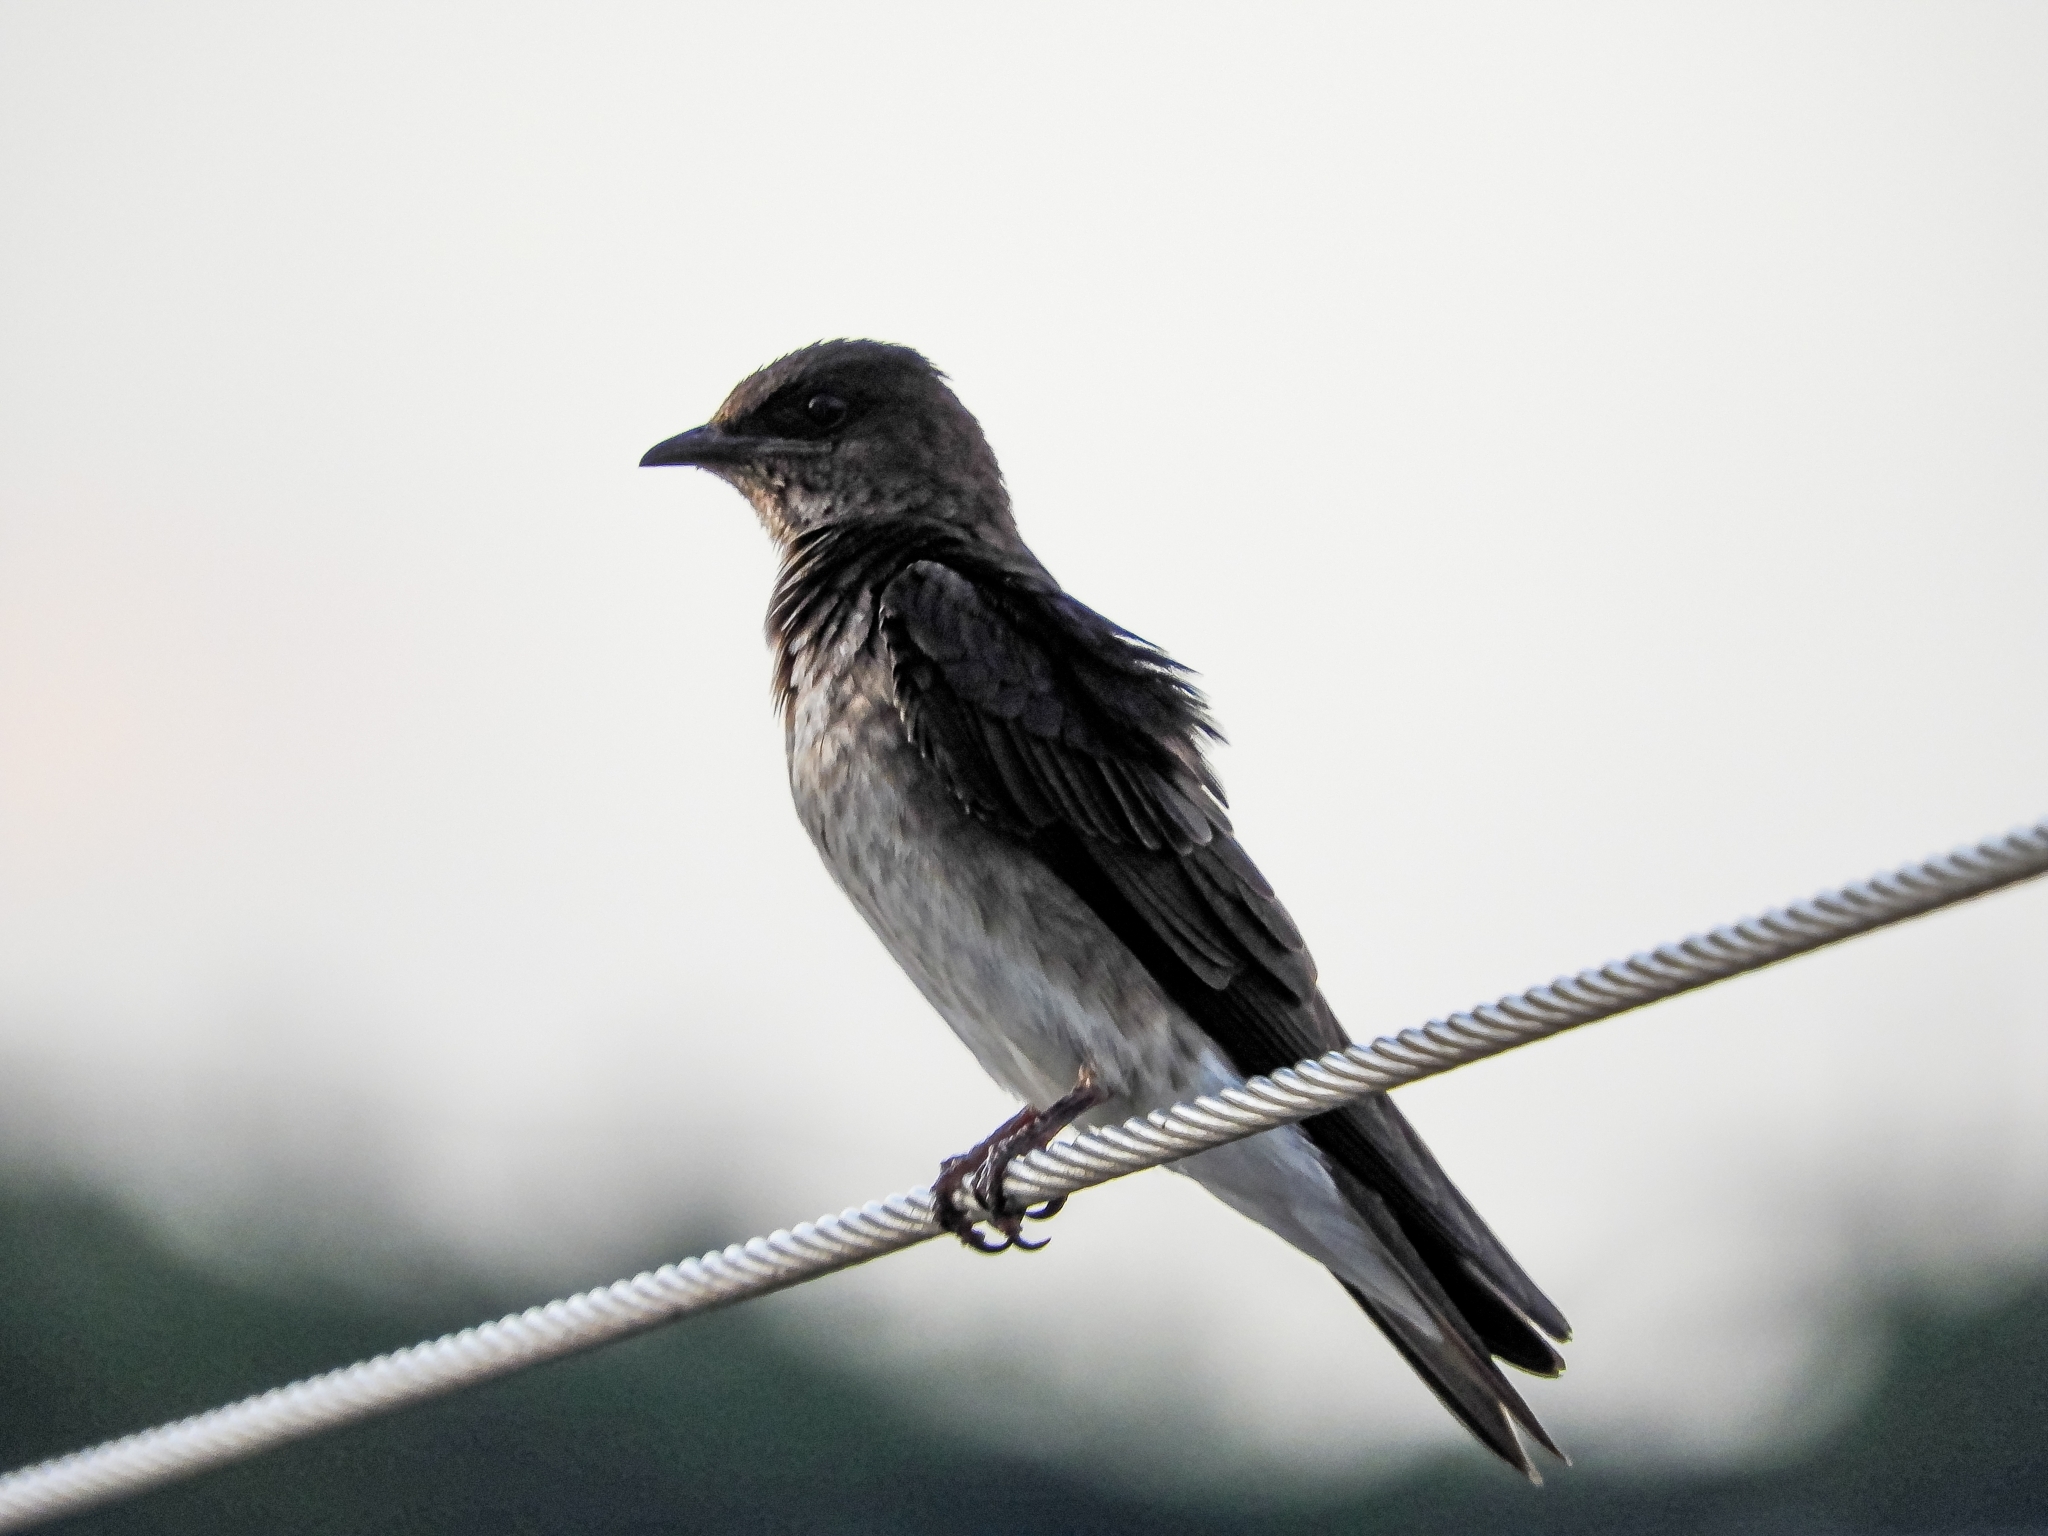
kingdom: Animalia
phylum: Chordata
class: Aves
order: Passeriformes
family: Hirundinidae
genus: Progne
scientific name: Progne chalybea
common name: Grey-breasted martin
